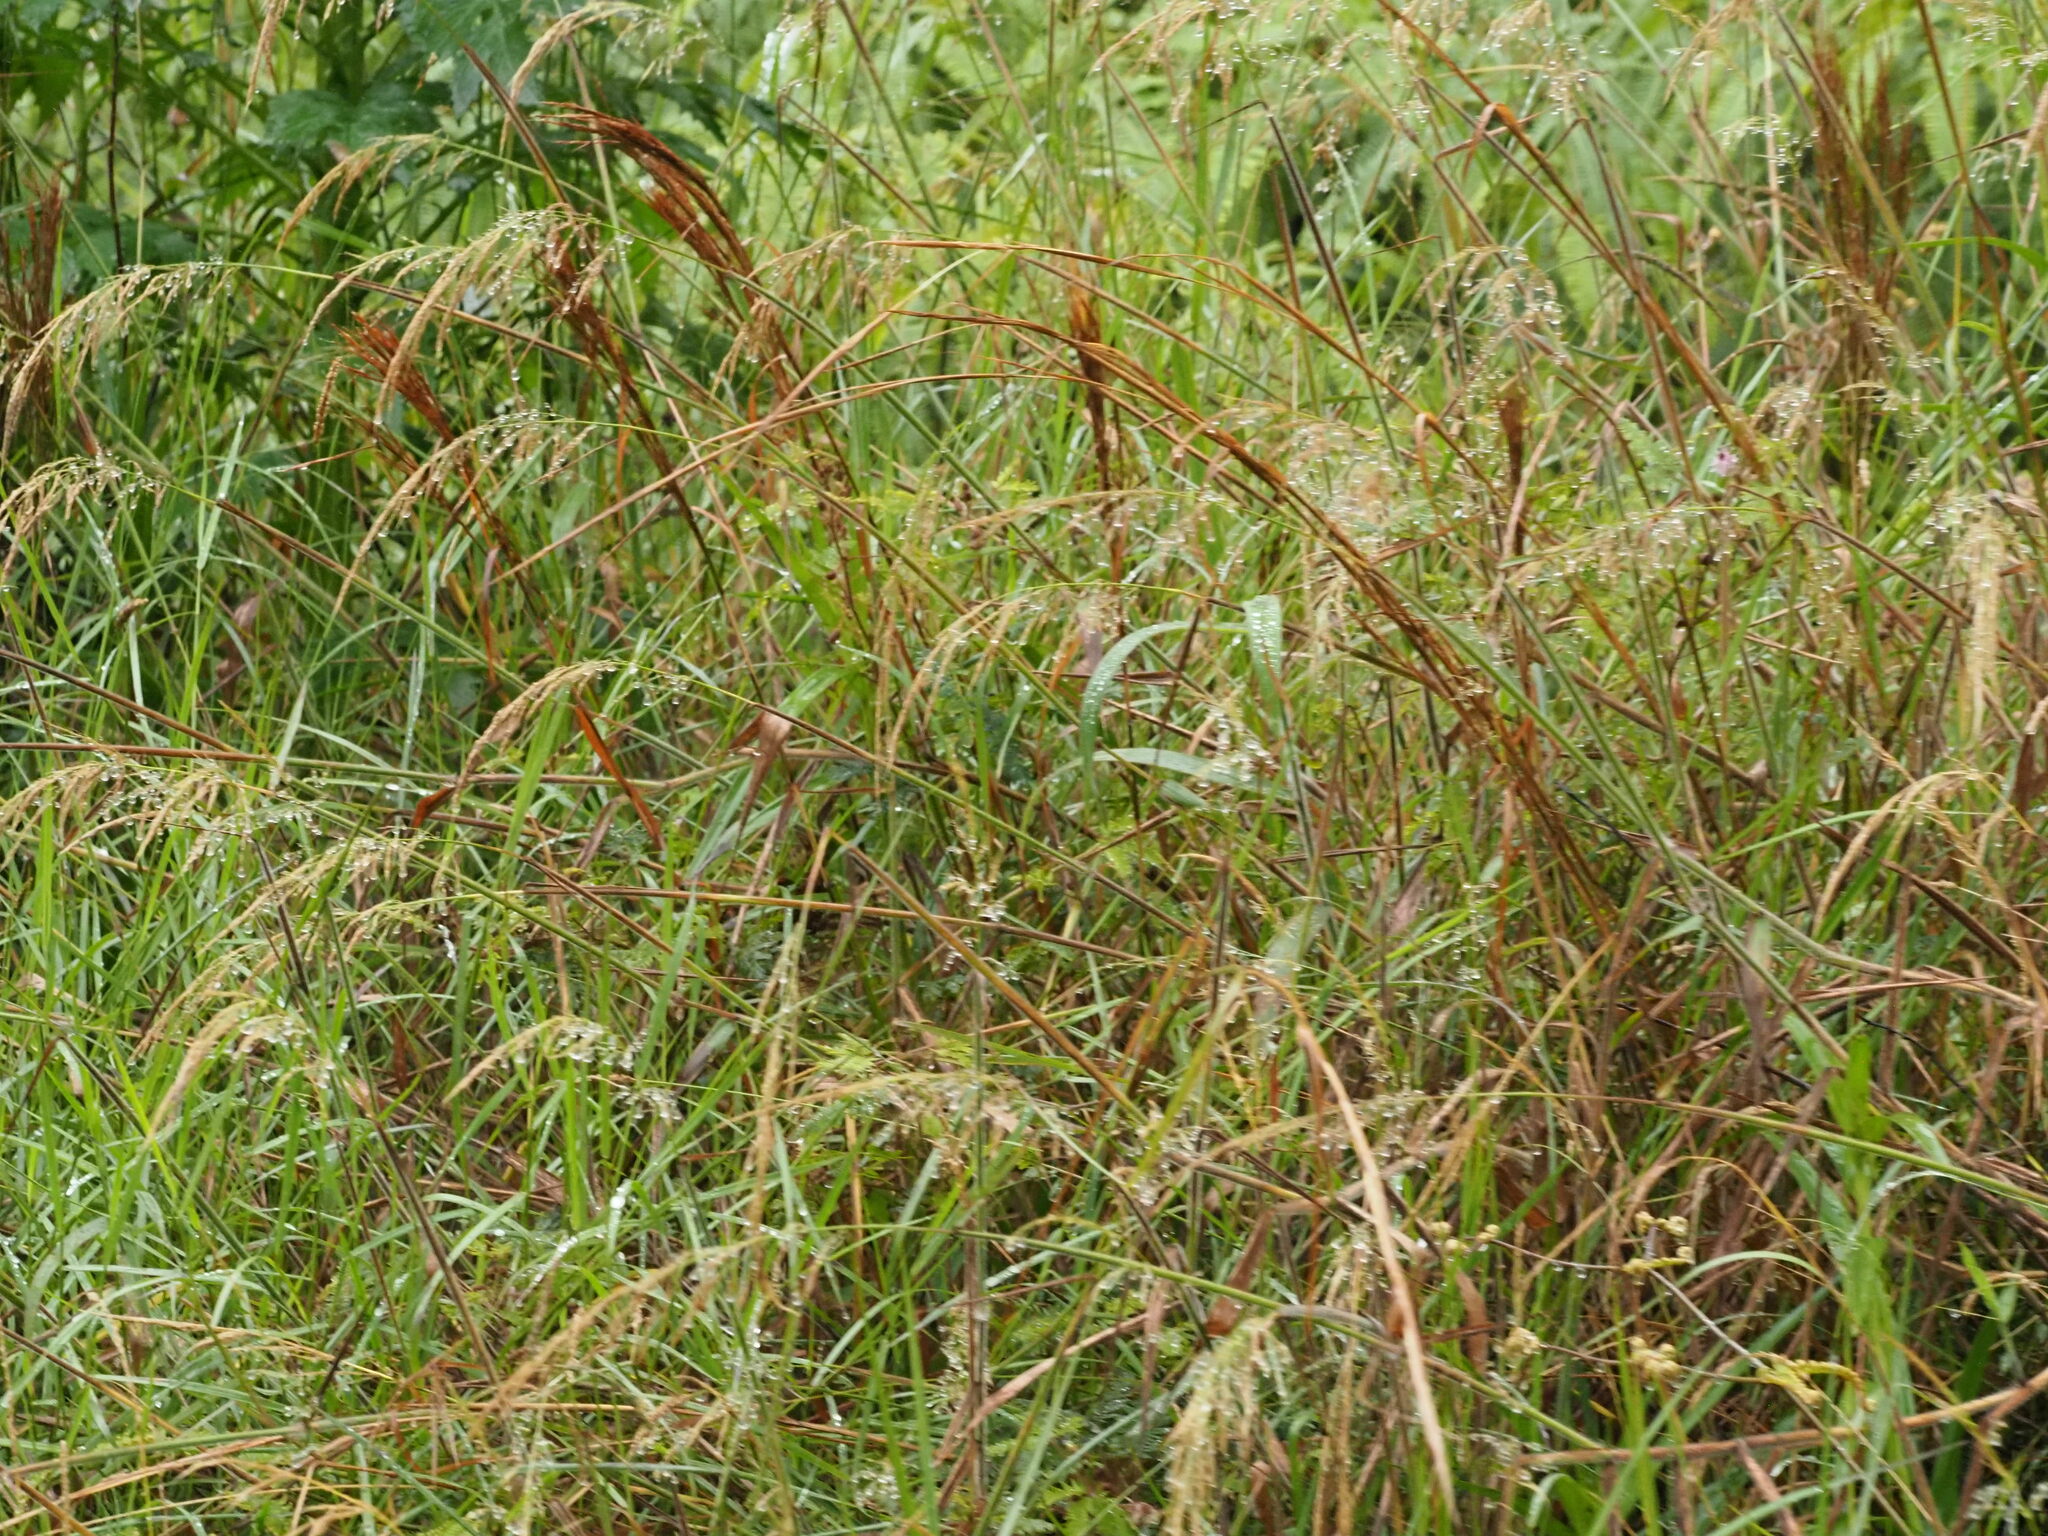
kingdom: Plantae
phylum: Tracheophyta
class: Liliopsida
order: Poales
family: Poaceae
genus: Melinis
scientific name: Melinis minutiflora
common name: Molassesgrass
